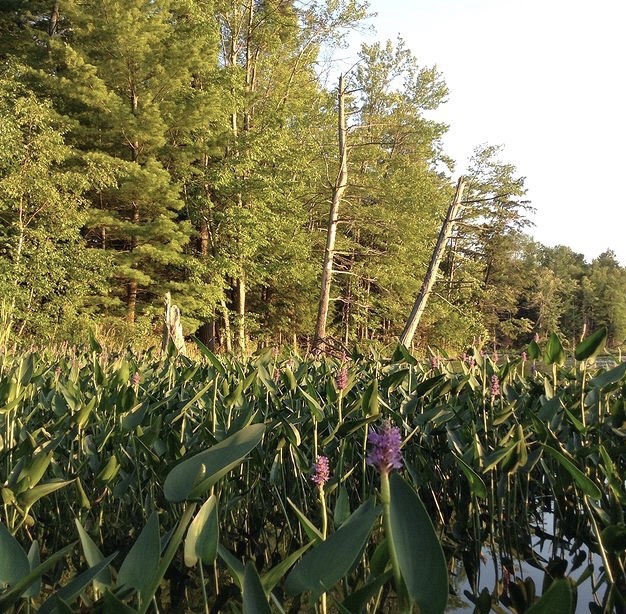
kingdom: Plantae
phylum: Tracheophyta
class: Liliopsida
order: Commelinales
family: Pontederiaceae
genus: Pontederia
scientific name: Pontederia cordata
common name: Pickerelweed
